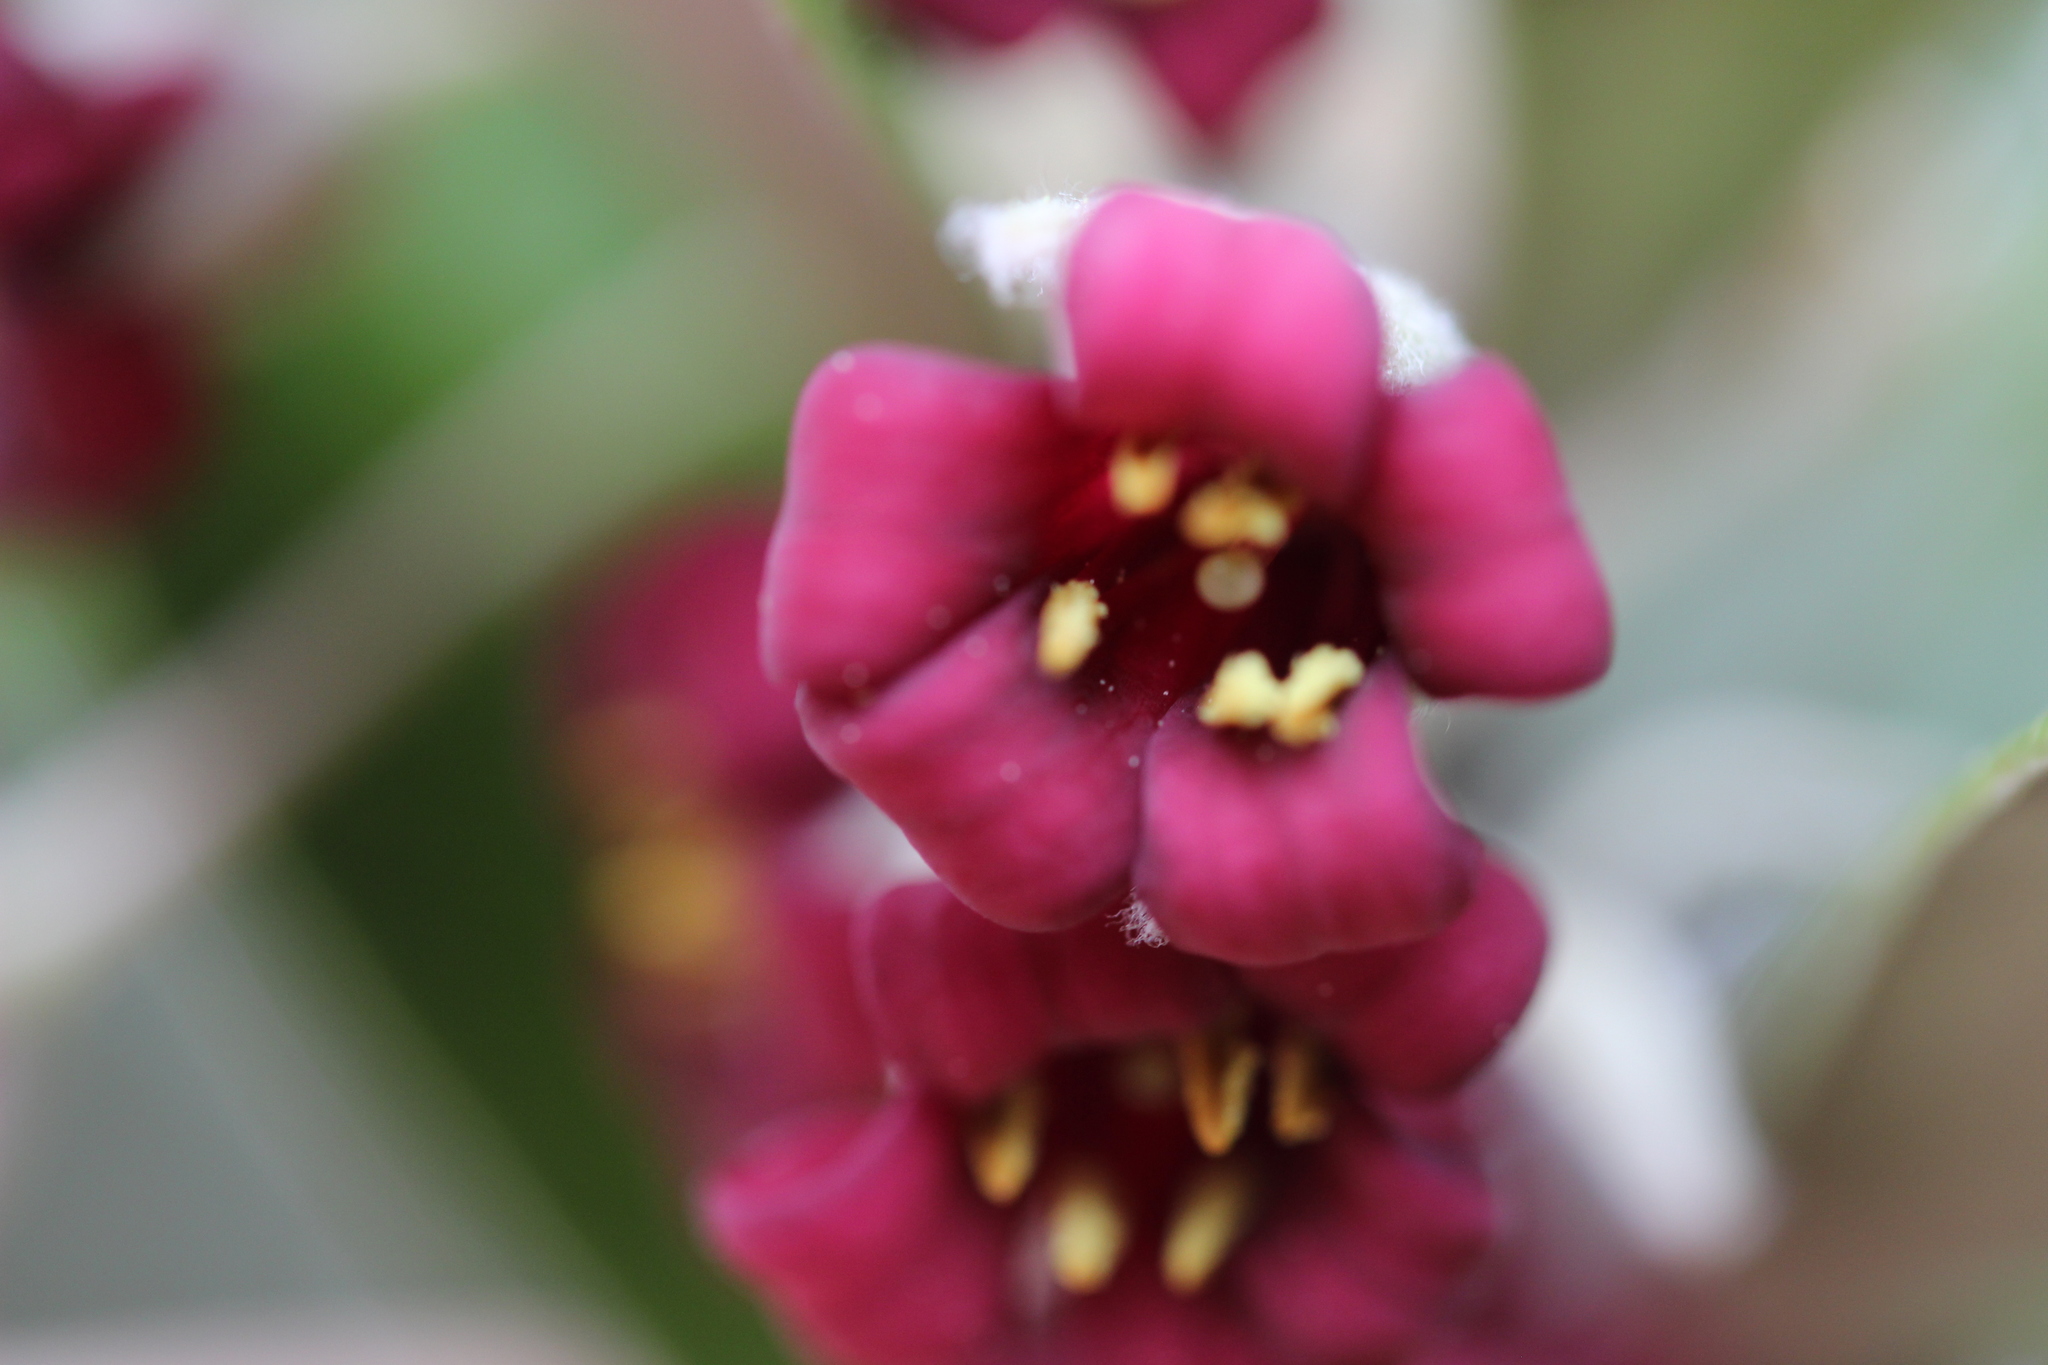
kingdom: Plantae
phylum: Tracheophyta
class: Magnoliopsida
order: Apiales
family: Pittosporaceae
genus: Pittosporum
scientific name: Pittosporum crassifolium
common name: Karo
